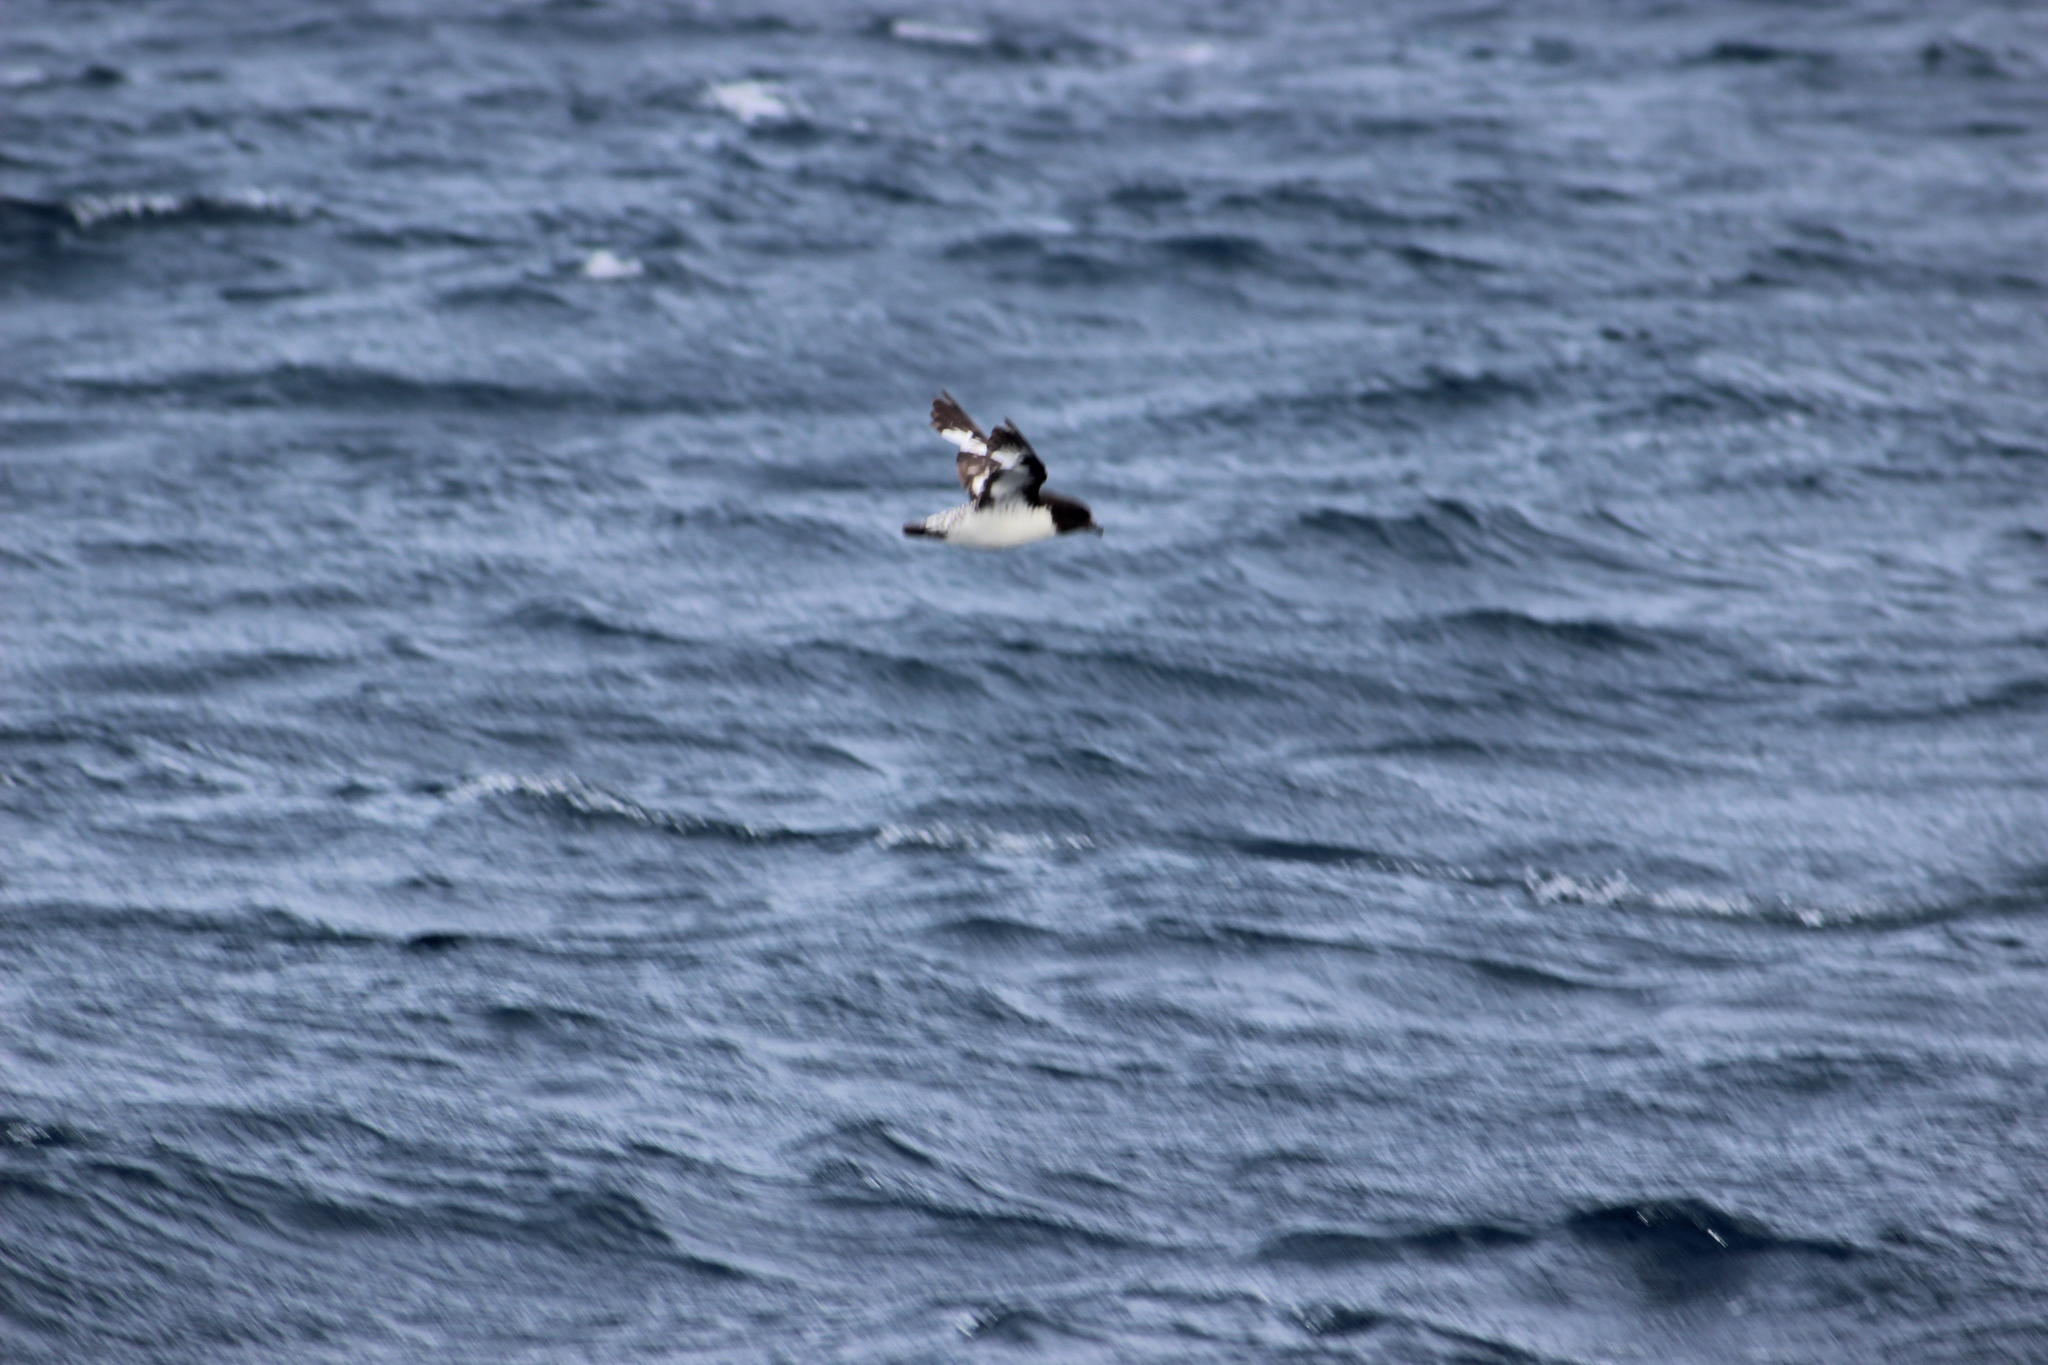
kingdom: Animalia
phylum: Chordata
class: Aves
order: Procellariiformes
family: Procellariidae
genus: Daption
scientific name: Daption capense
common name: Cape petrel
